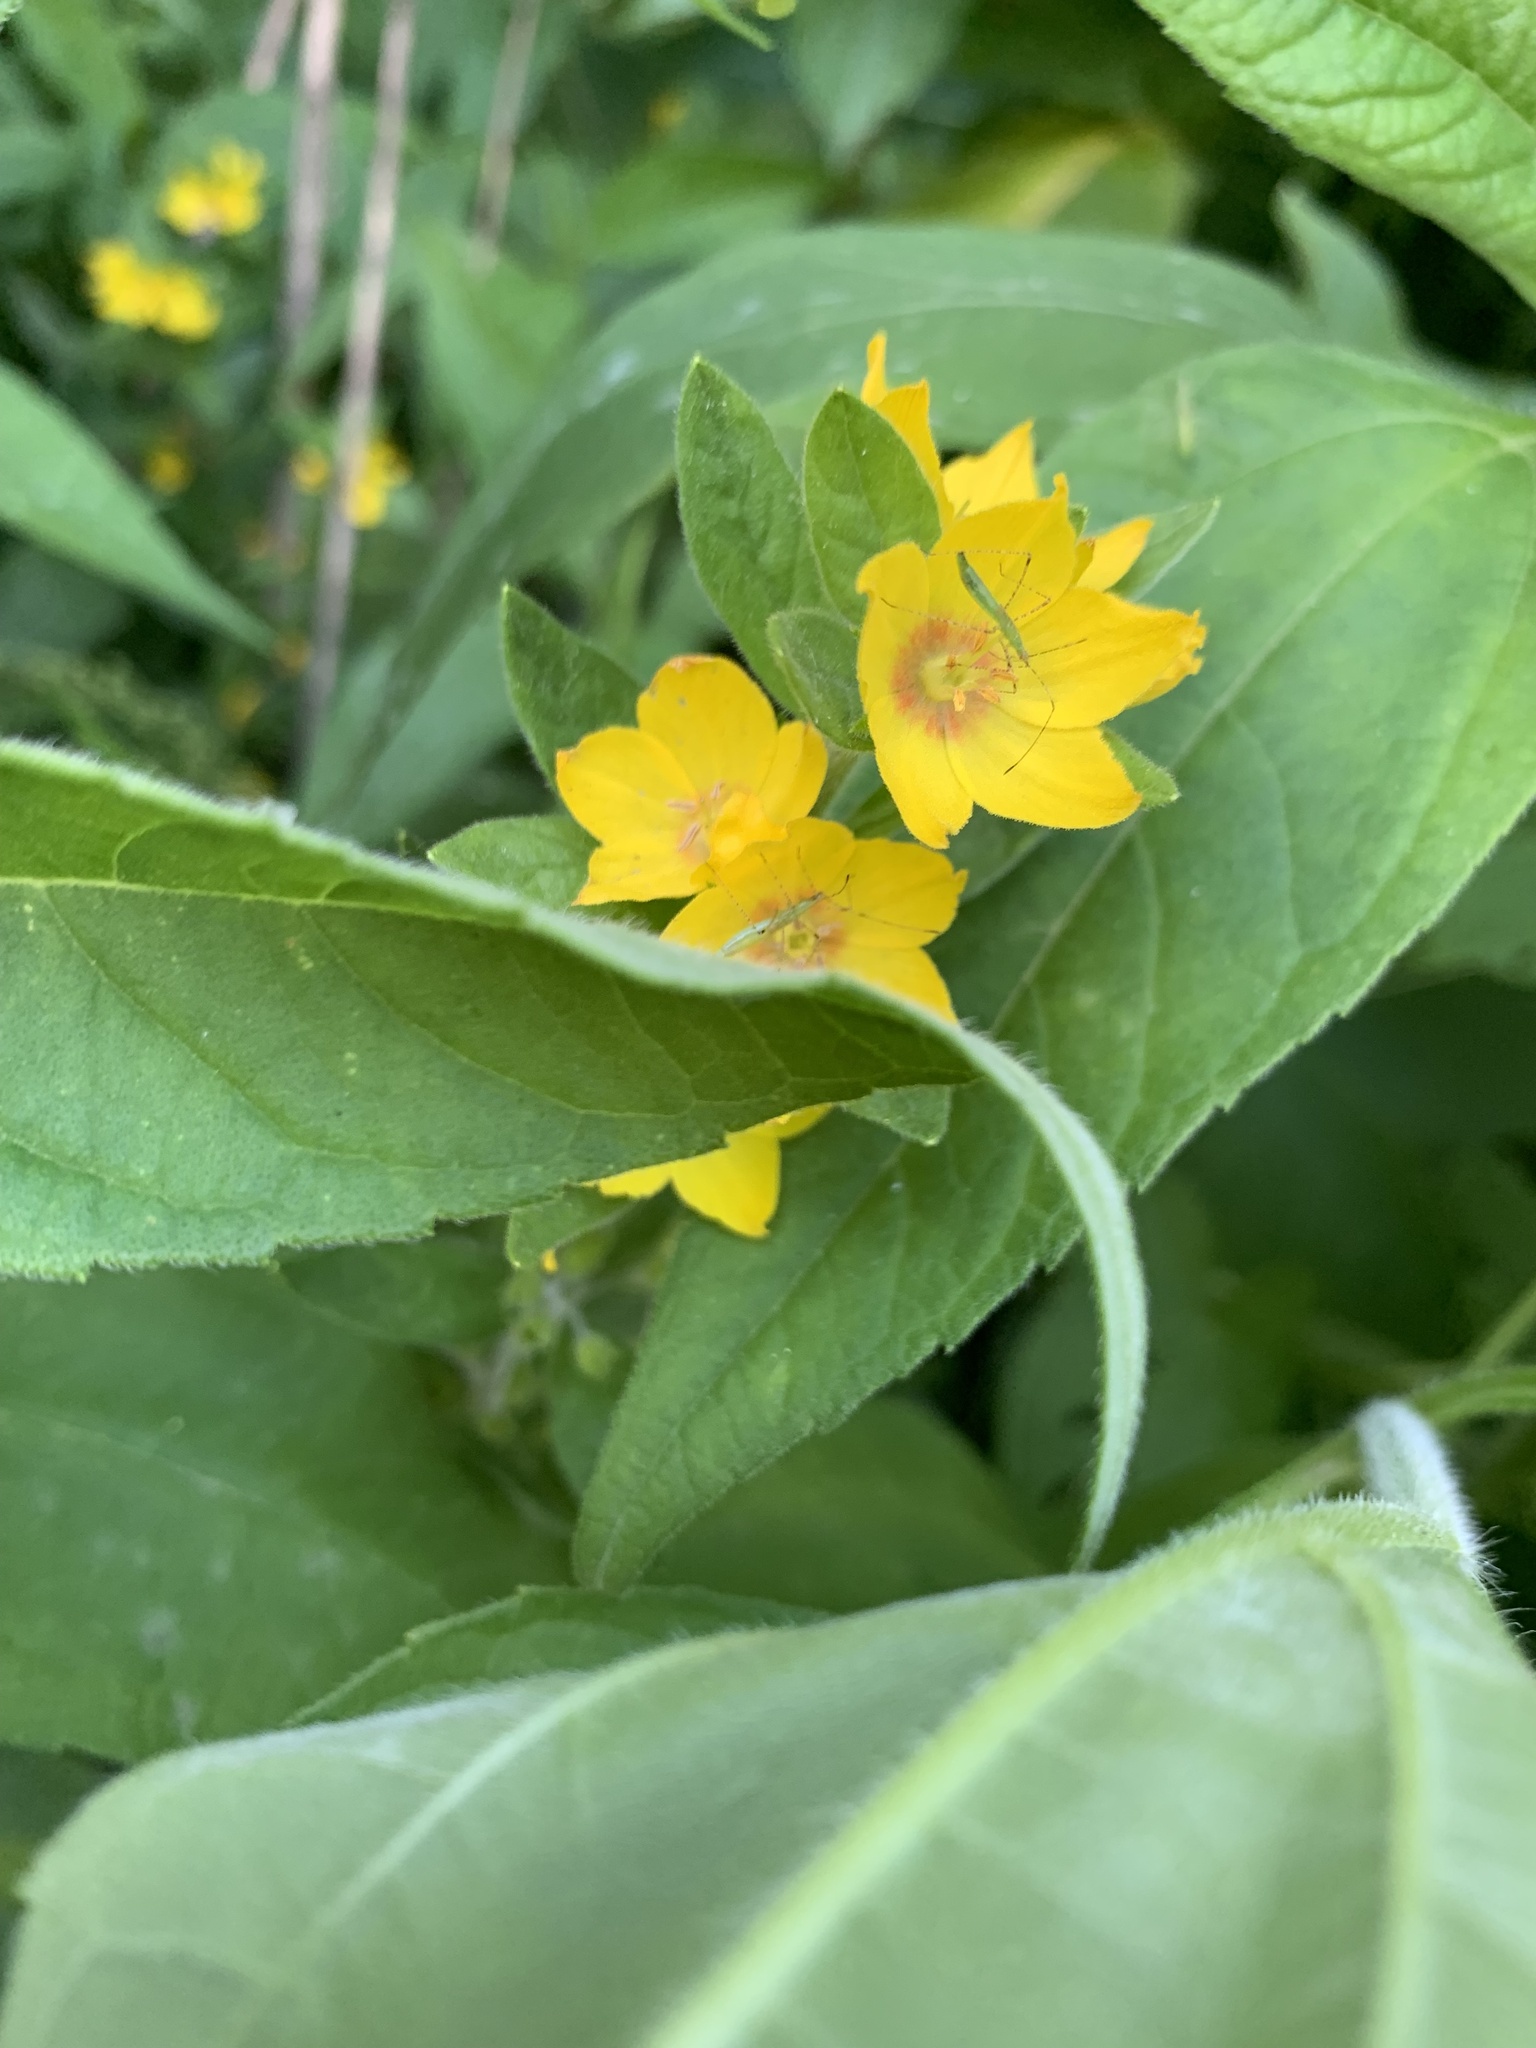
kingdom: Plantae
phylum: Tracheophyta
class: Magnoliopsida
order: Ericales
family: Primulaceae
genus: Lysimachia
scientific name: Lysimachia punctata
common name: Dotted loosestrife
